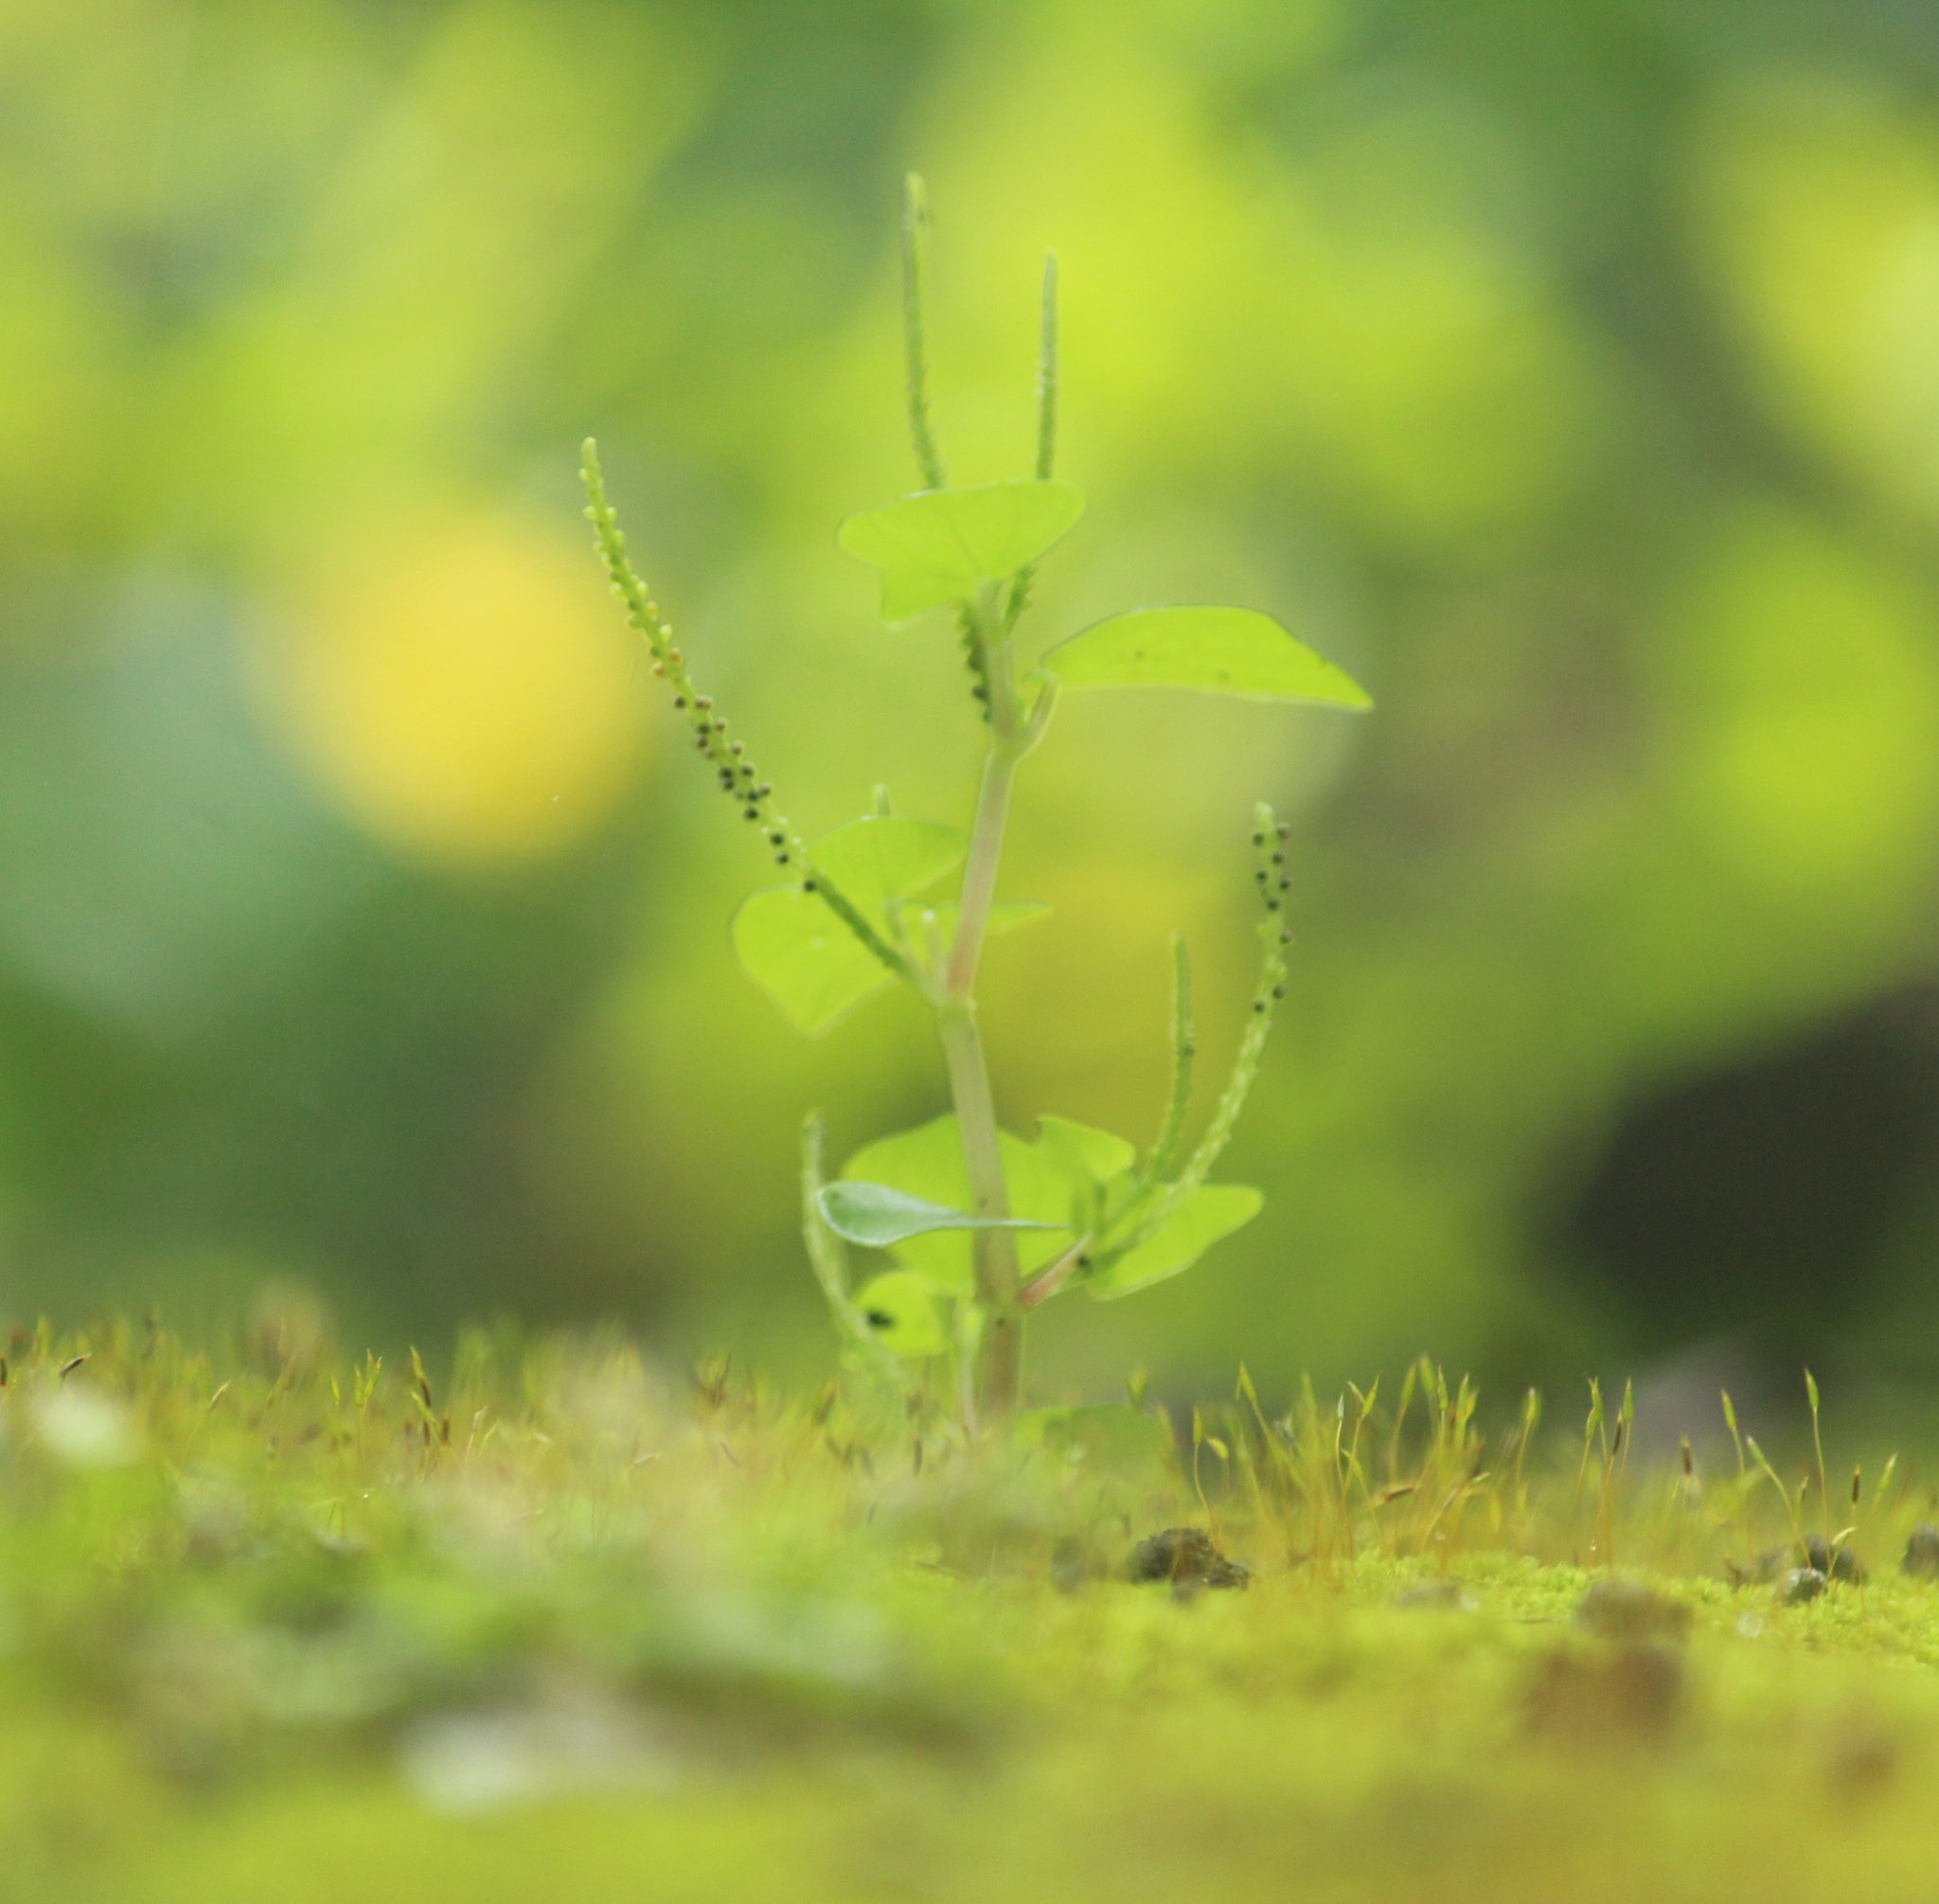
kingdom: Plantae
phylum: Tracheophyta
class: Magnoliopsida
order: Piperales
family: Piperaceae
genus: Peperomia
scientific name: Peperomia pellucida
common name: Man to man
